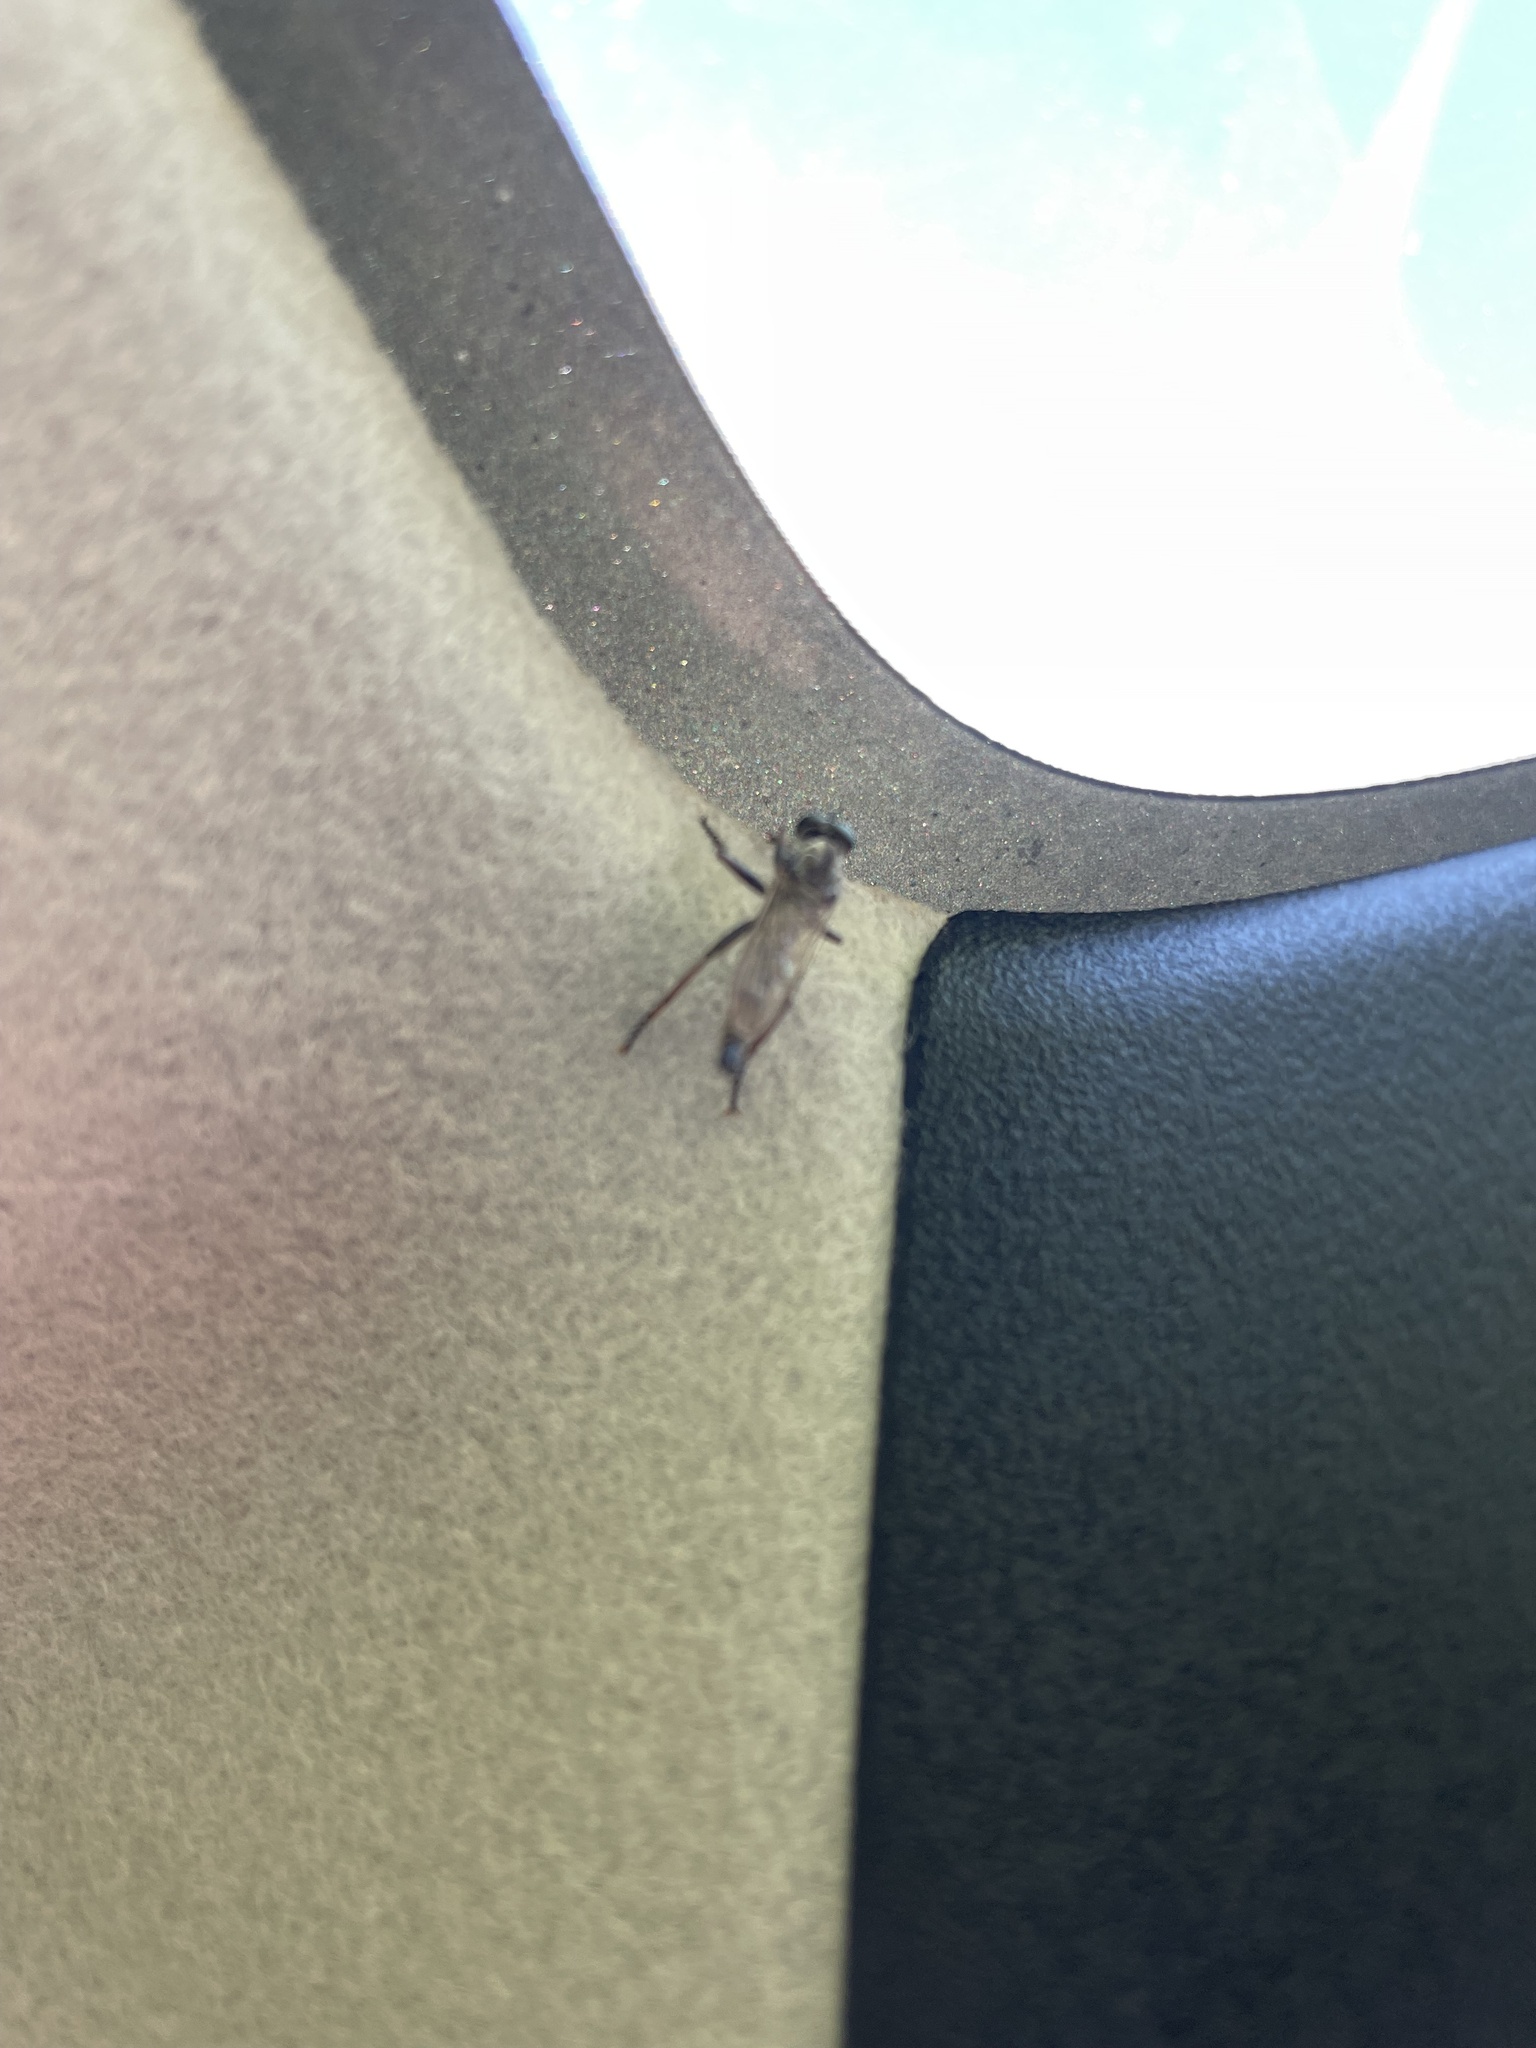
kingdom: Animalia
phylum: Arthropoda
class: Insecta
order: Diptera
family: Asilidae
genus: Machimus
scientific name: Machimus atricapillus
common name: Kite-tailed robberfly
